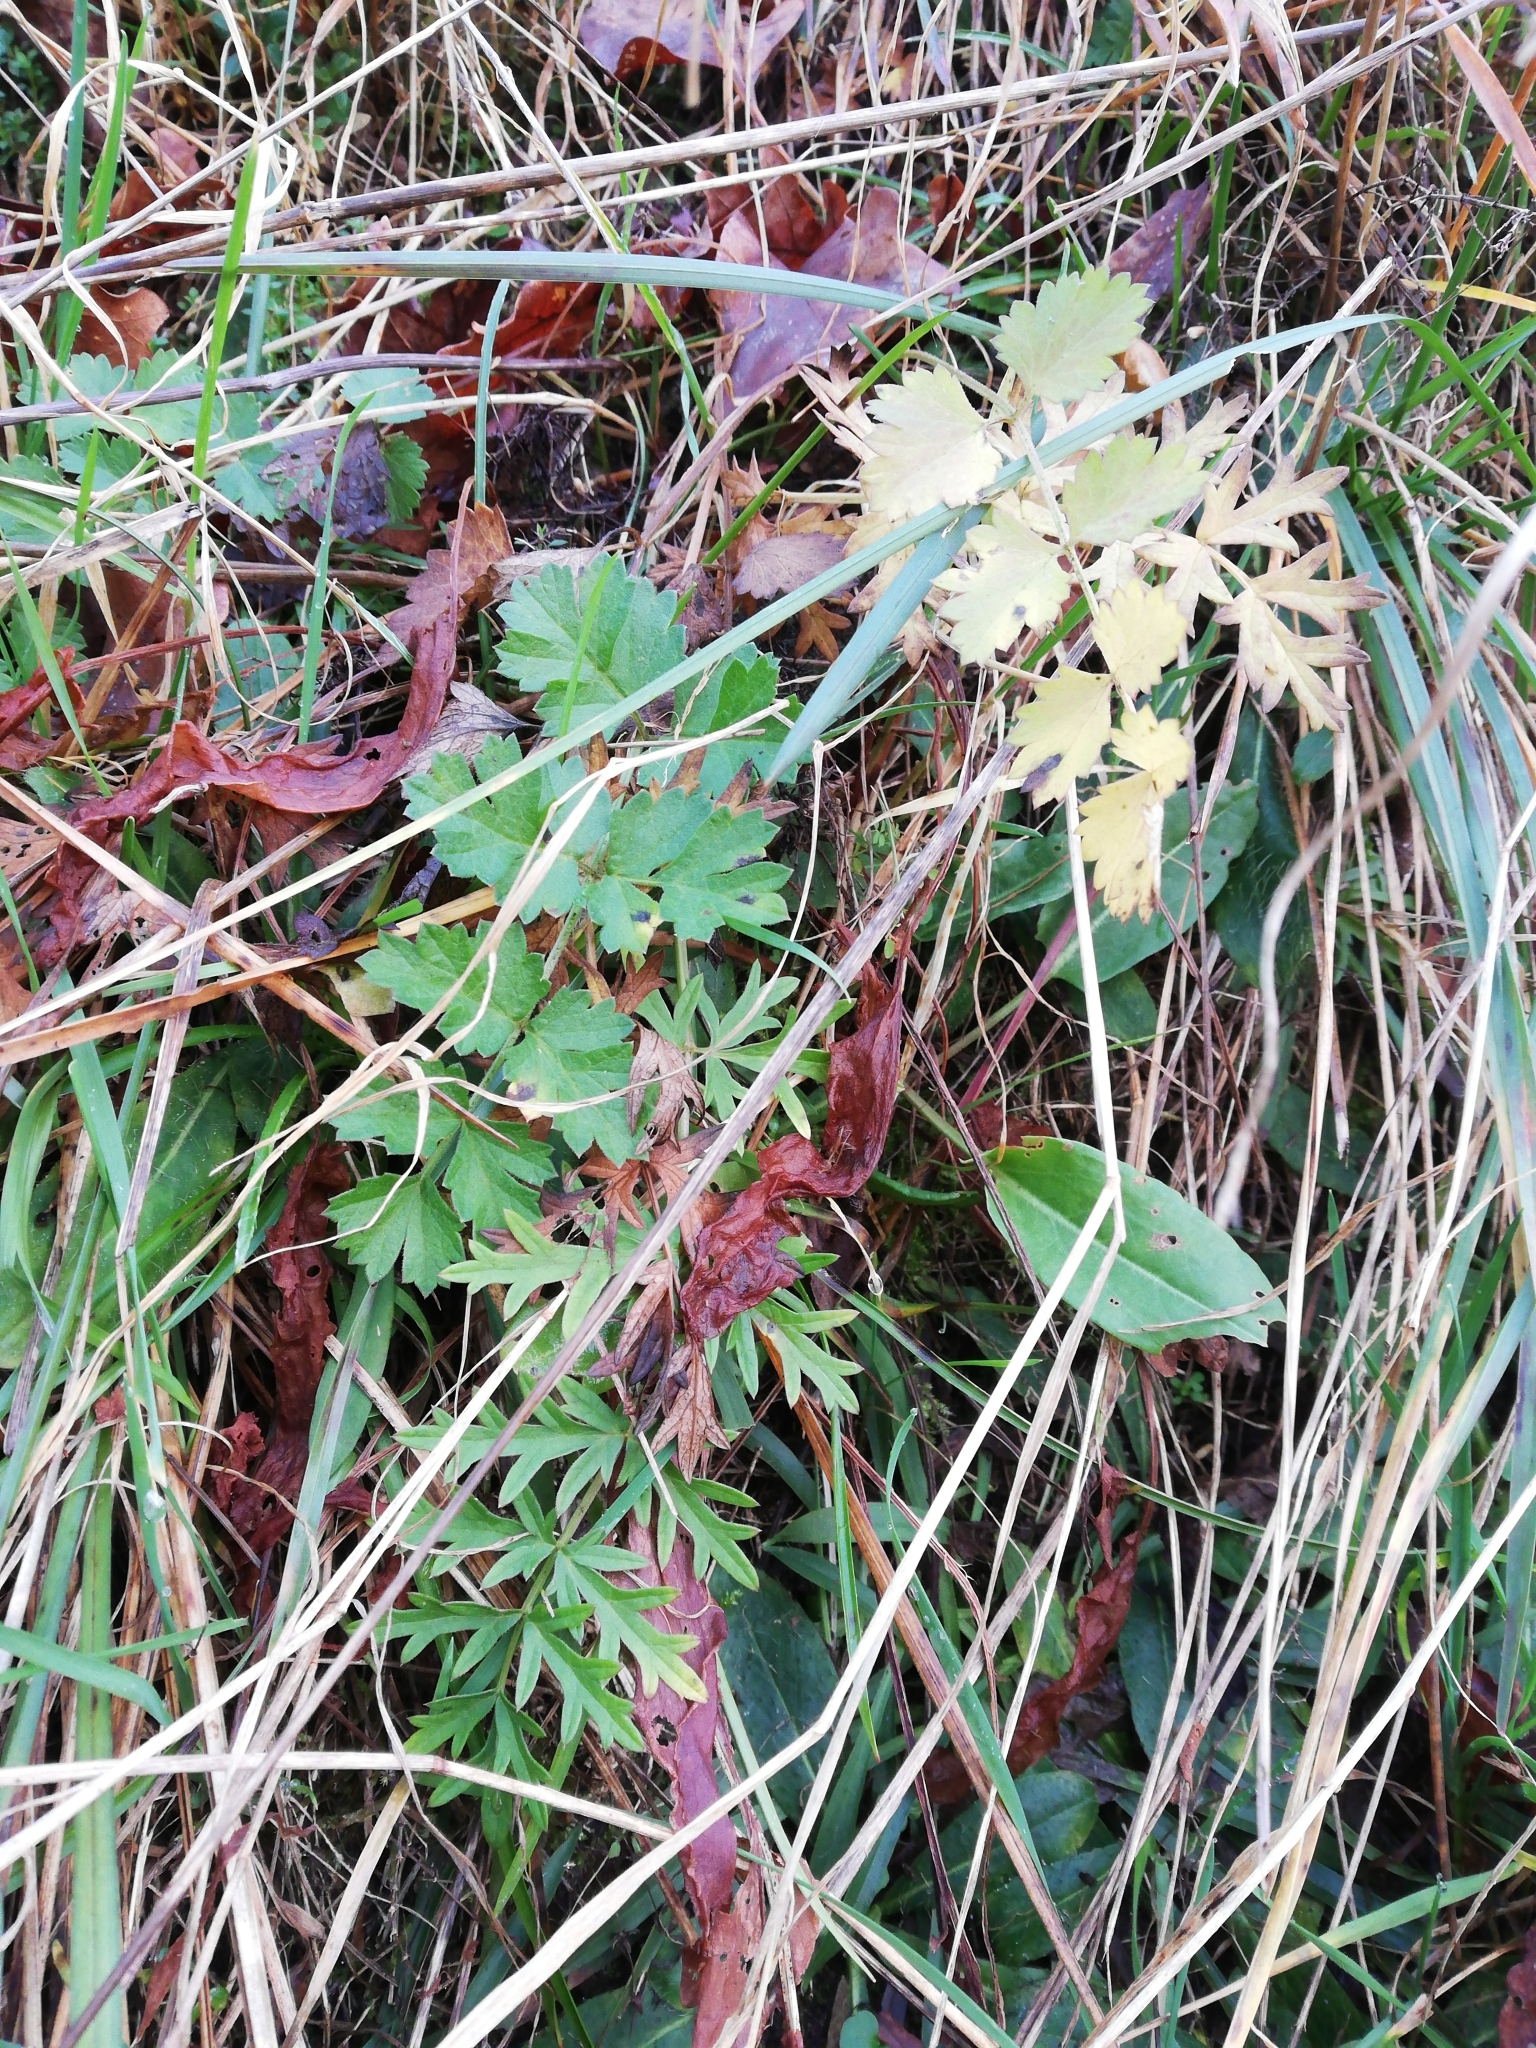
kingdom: Plantae
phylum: Tracheophyta
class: Magnoliopsida
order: Apiales
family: Apiaceae
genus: Pimpinella
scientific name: Pimpinella saxifraga
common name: Burnet-saxifrage
